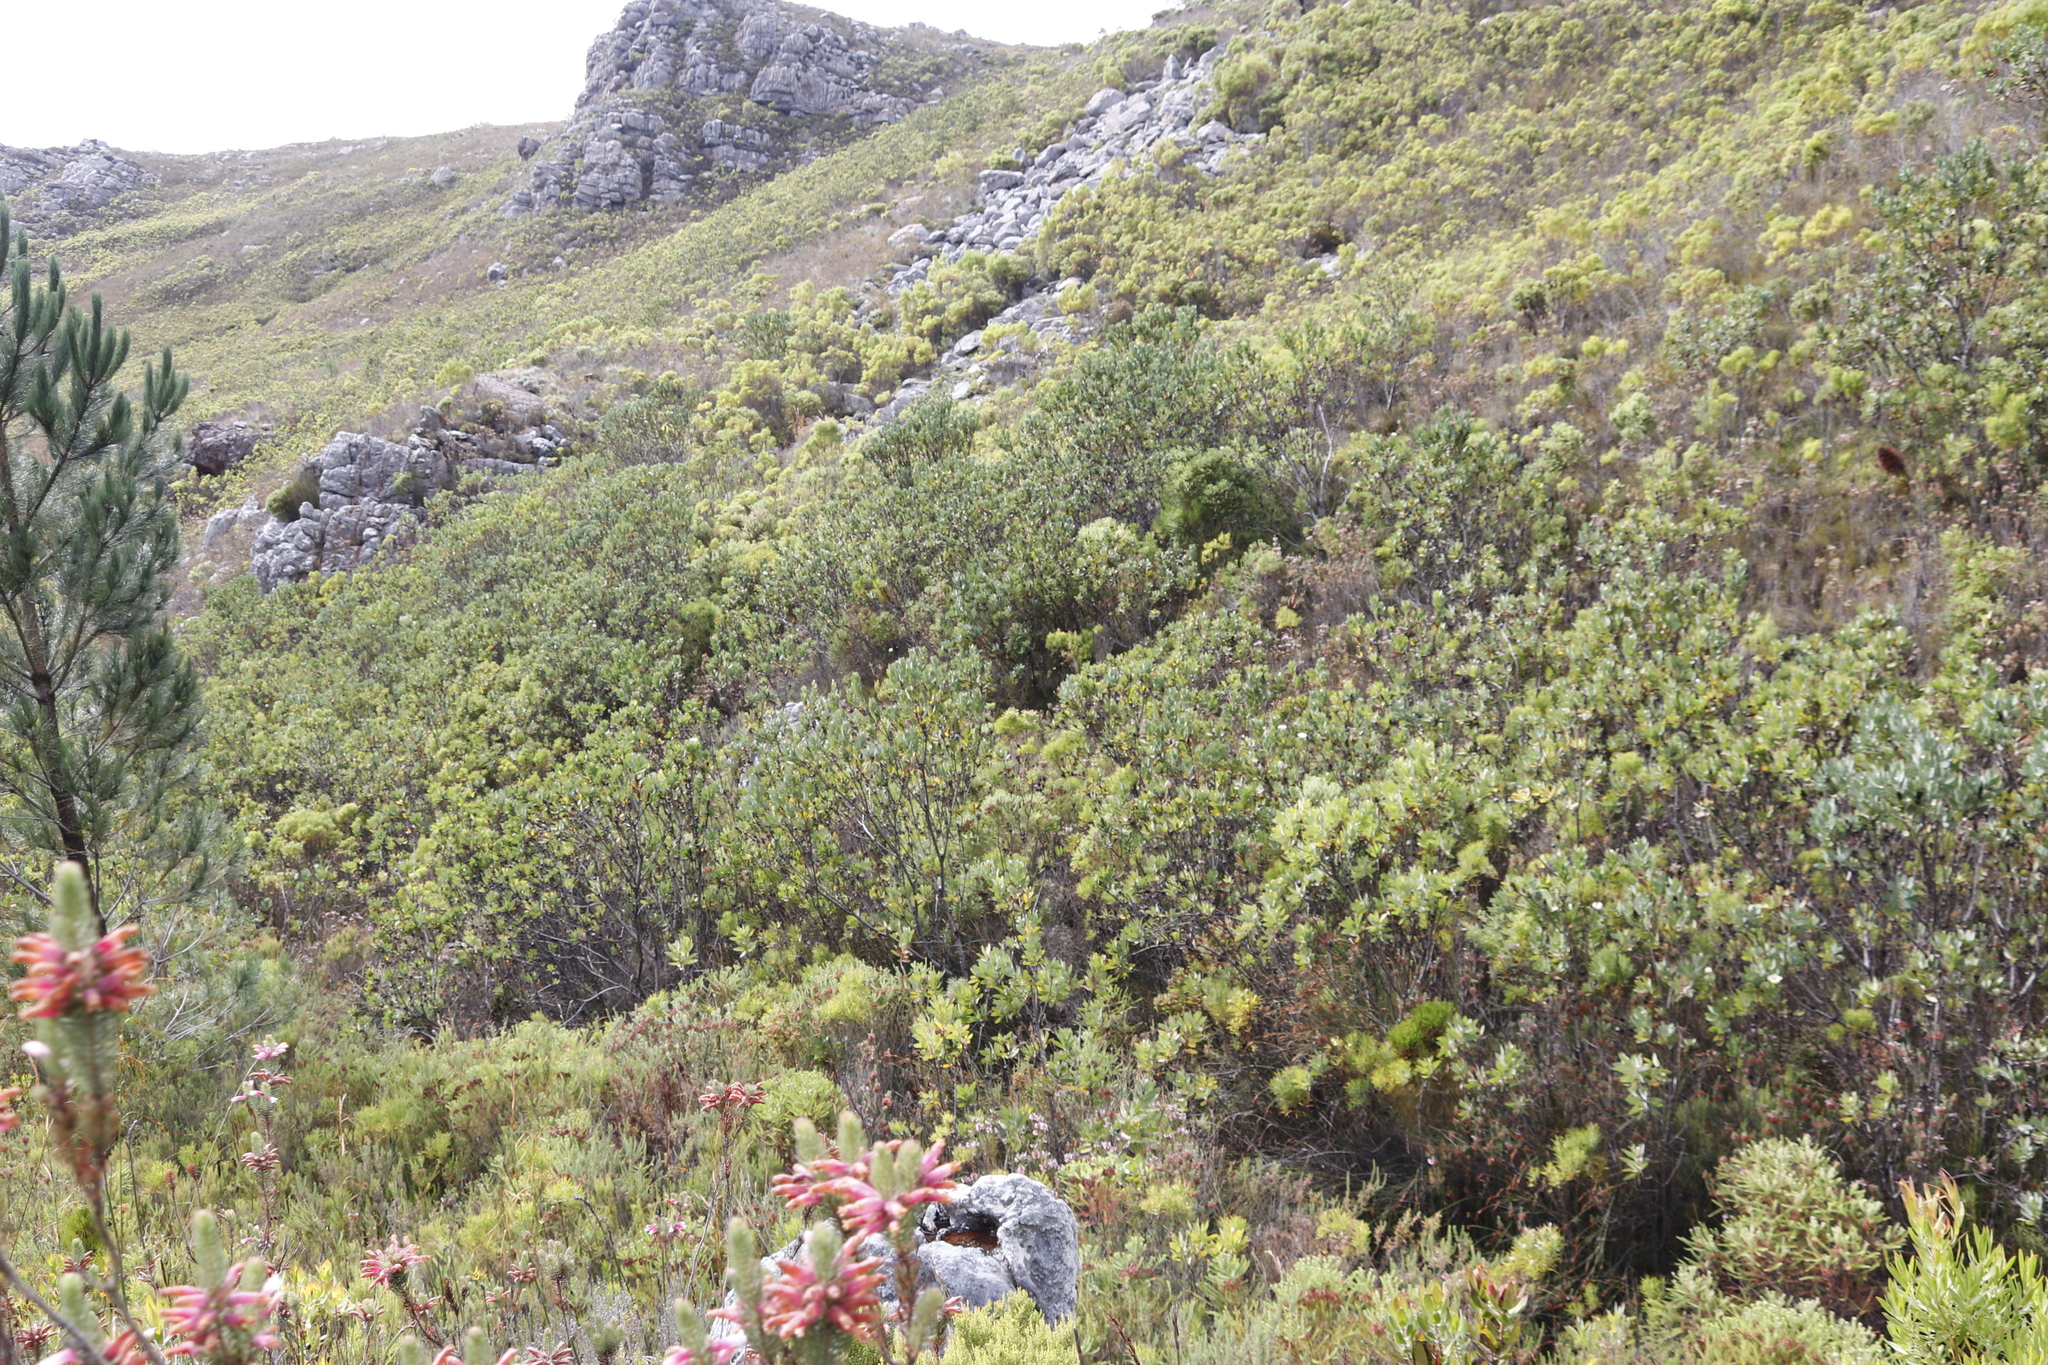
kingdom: Plantae
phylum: Tracheophyta
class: Magnoliopsida
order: Proteales
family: Proteaceae
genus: Protea
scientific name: Protea lacticolor
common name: Hottentot sugarbush
